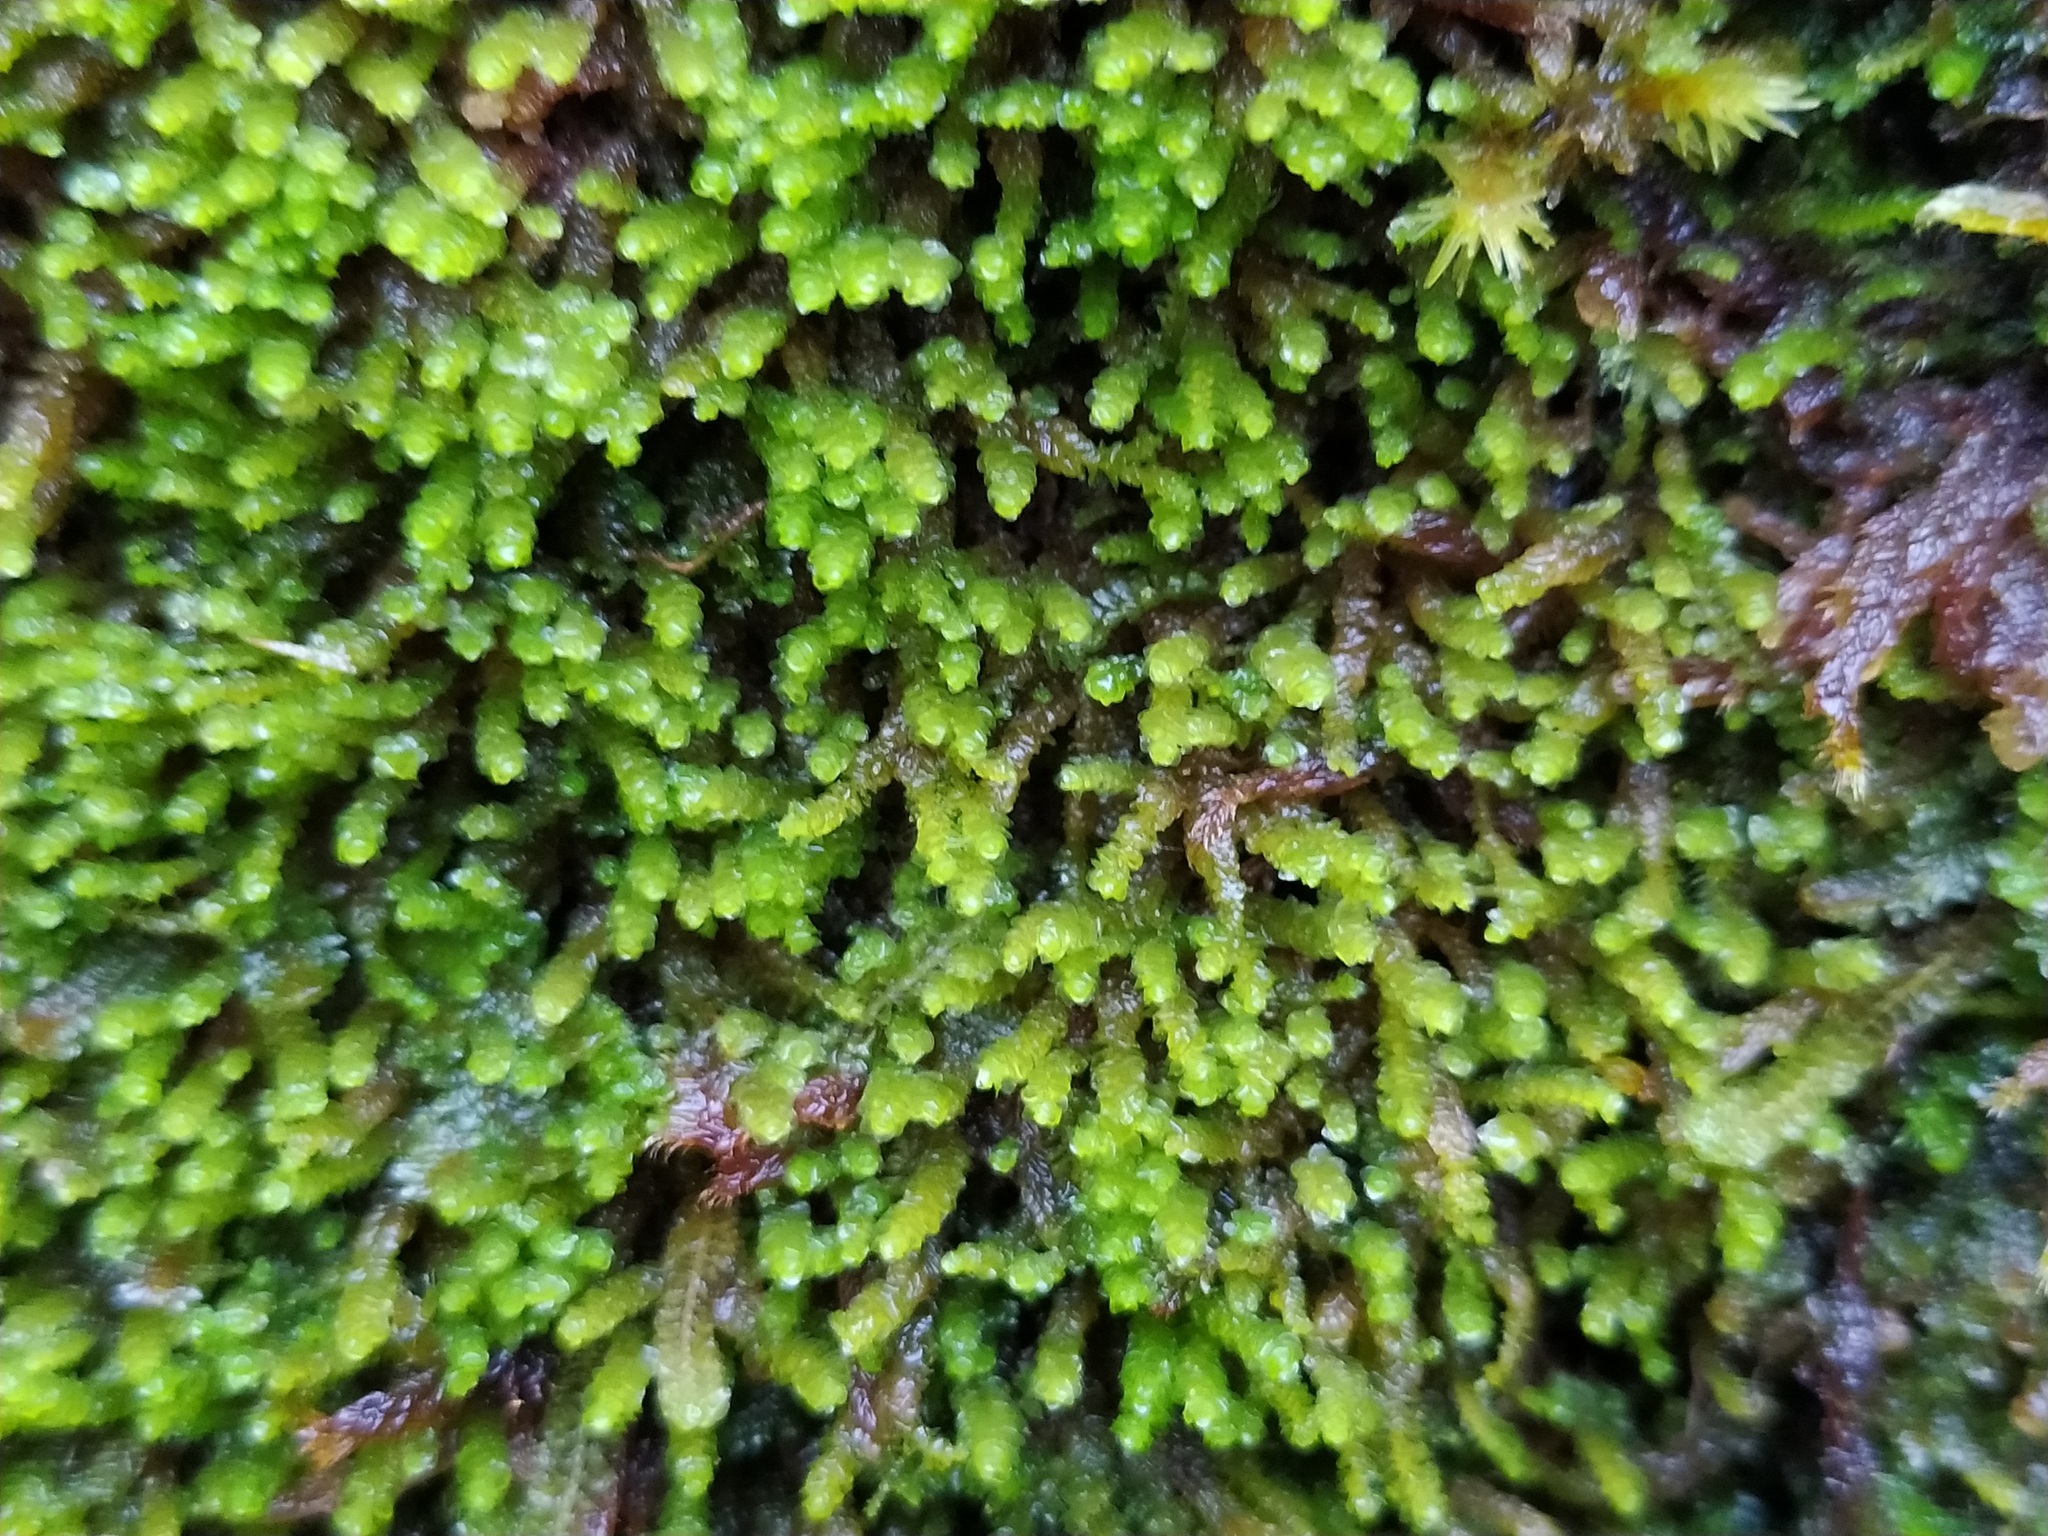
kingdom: Plantae
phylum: Marchantiophyta
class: Jungermanniopsida
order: Jungermanniales
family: Gymnomitriaceae
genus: Marsupella
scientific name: Marsupella emarginata
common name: Notched rustwort
